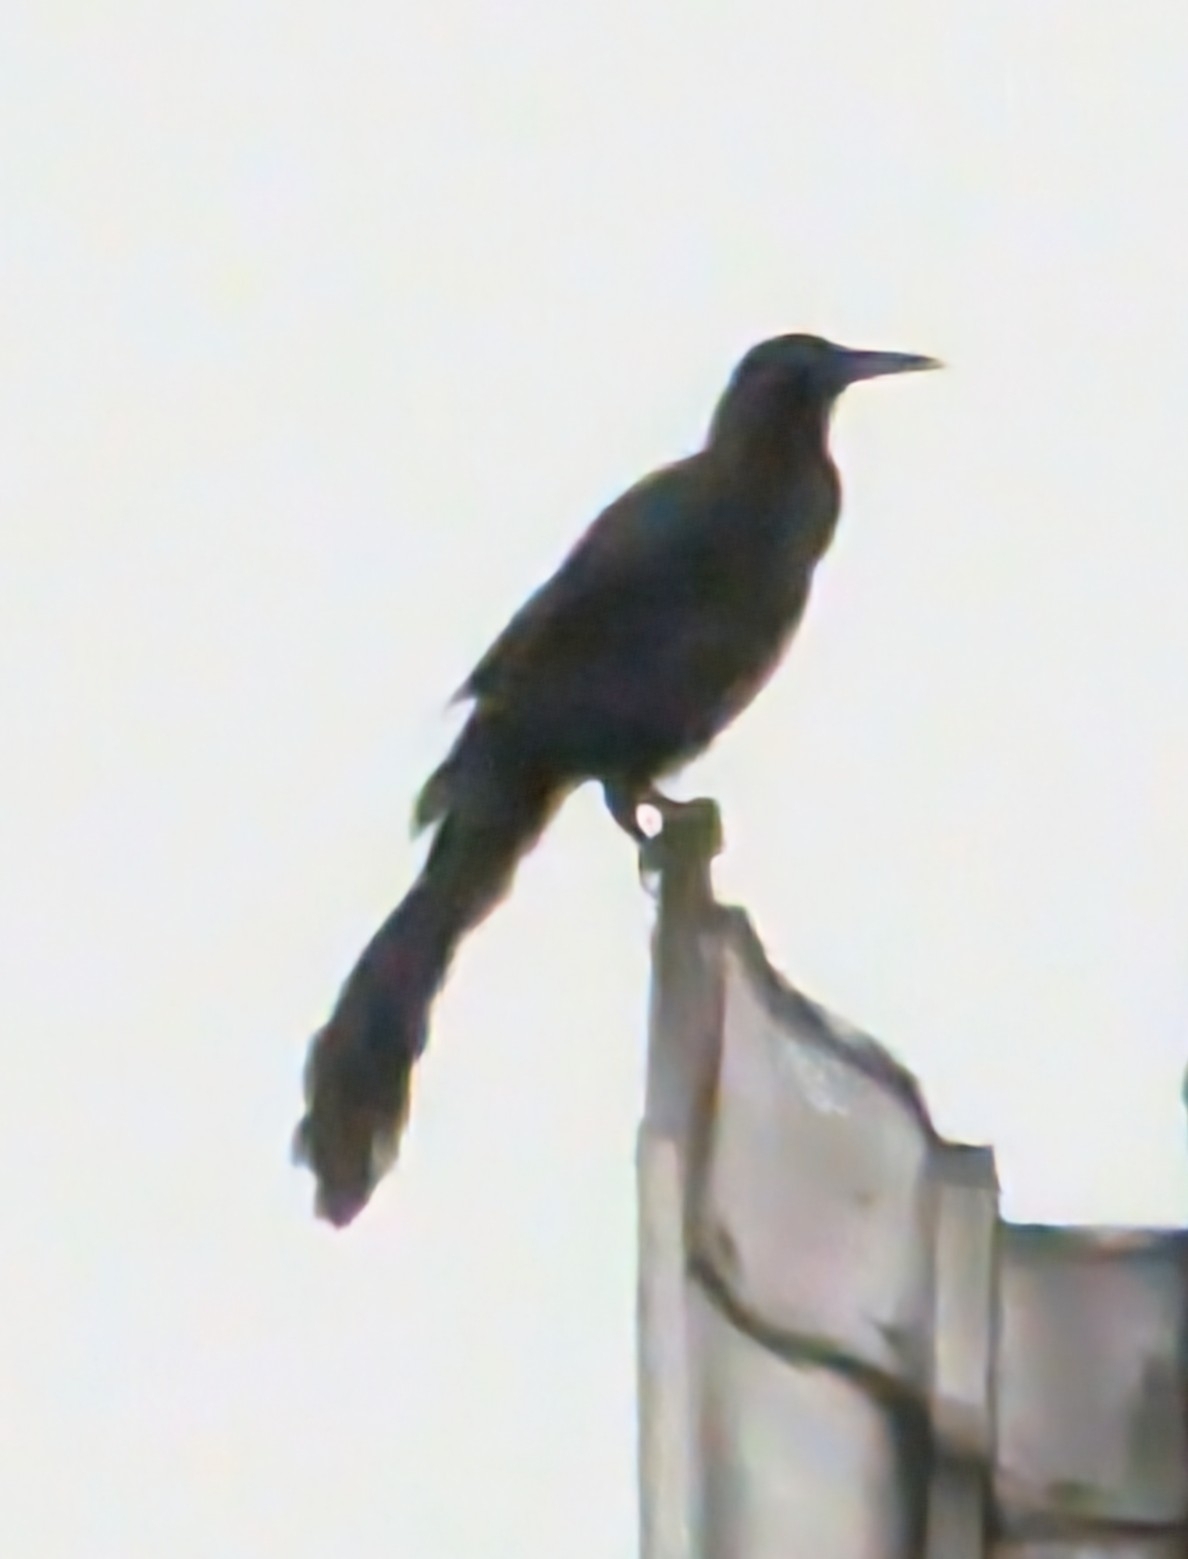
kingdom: Animalia
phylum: Chordata
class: Aves
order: Passeriformes
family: Icteridae
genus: Quiscalus
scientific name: Quiscalus mexicanus
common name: Great-tailed grackle
